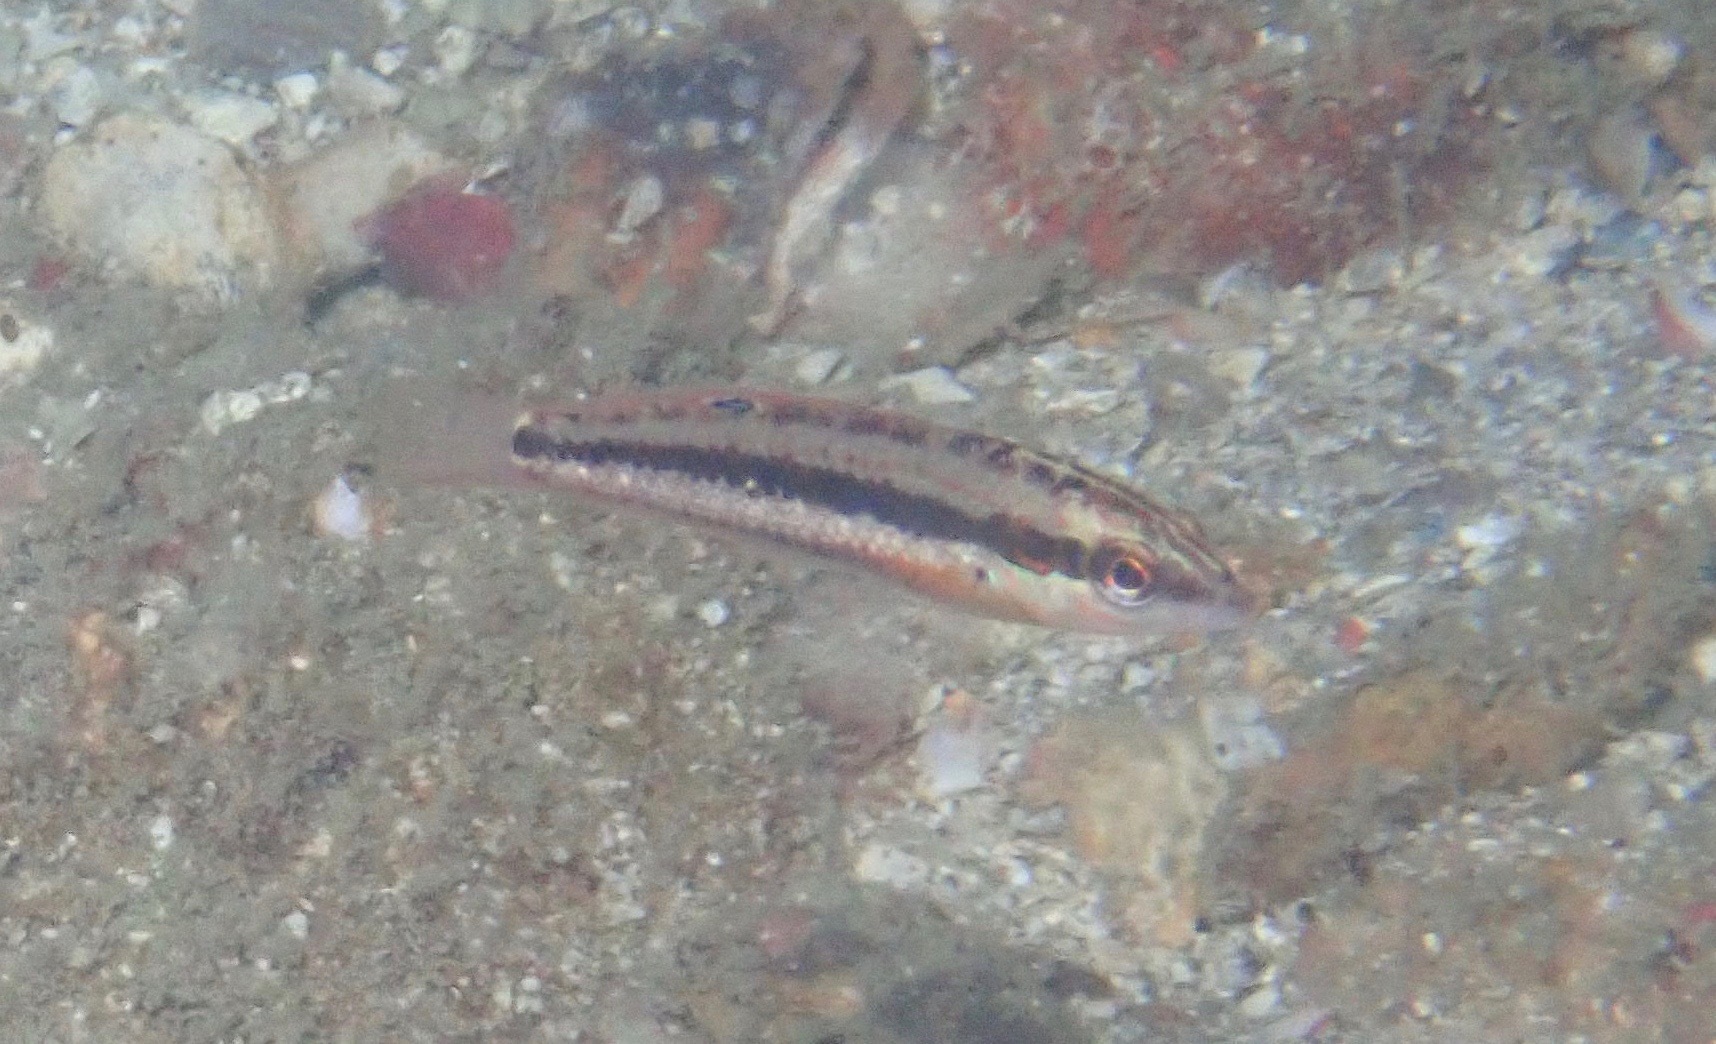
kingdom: Animalia
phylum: Chordata
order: Perciformes
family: Labridae
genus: Halichoeres
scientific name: Halichoeres bicolor
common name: Earmuff wrasse
